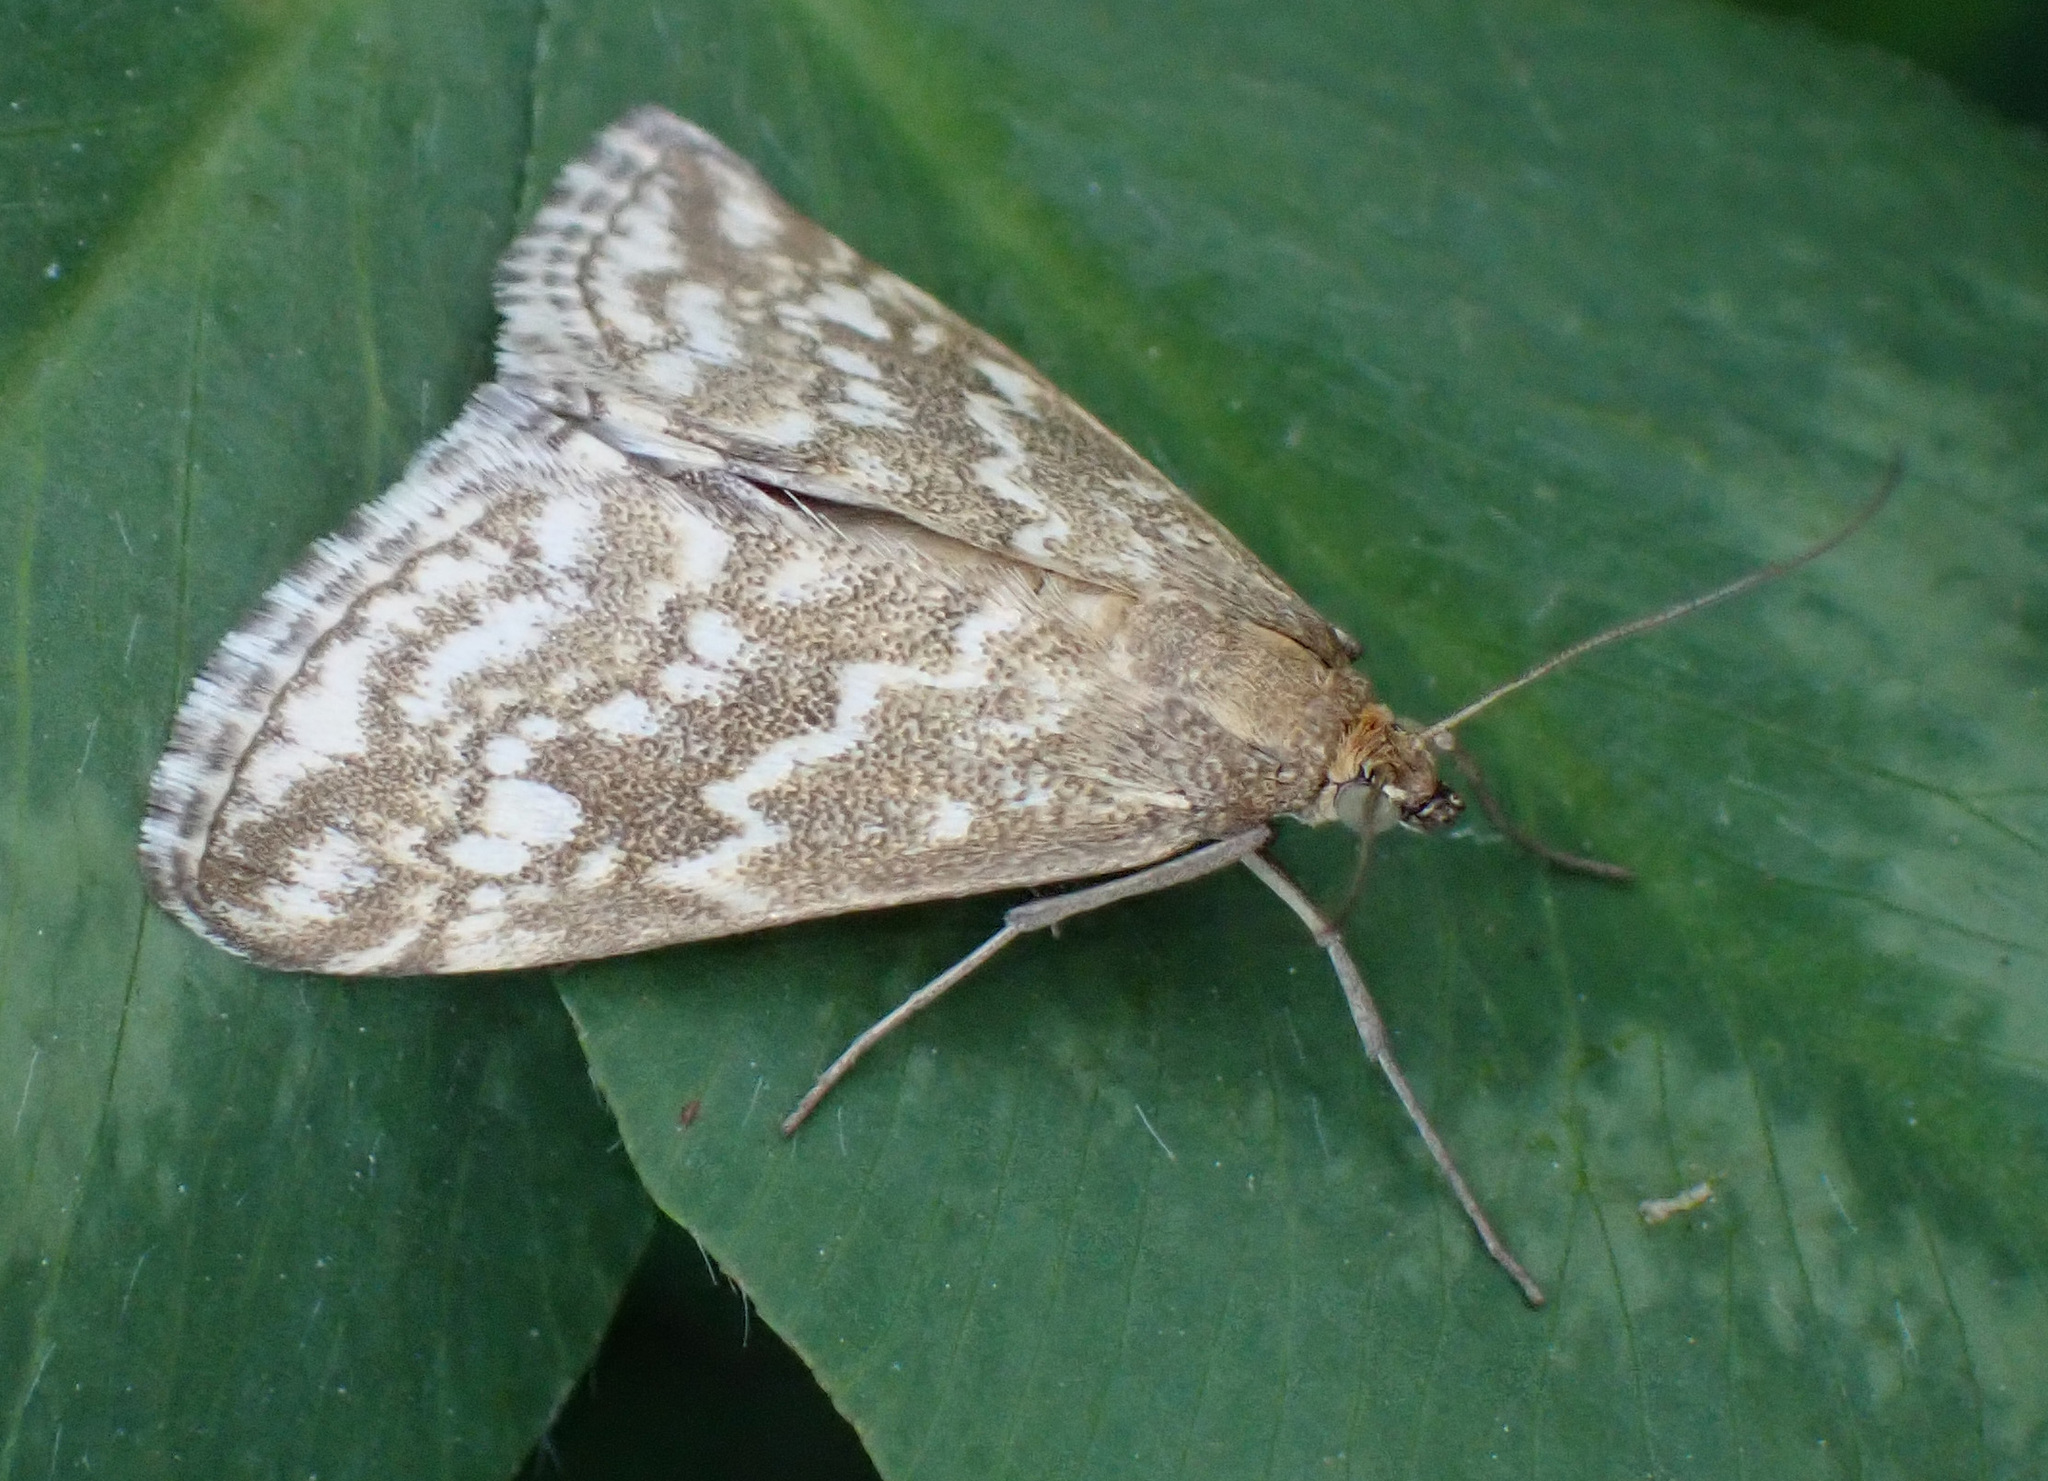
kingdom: Animalia
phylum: Arthropoda
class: Insecta
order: Lepidoptera
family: Crambidae
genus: Evergestis
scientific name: Evergestis frumentalis
